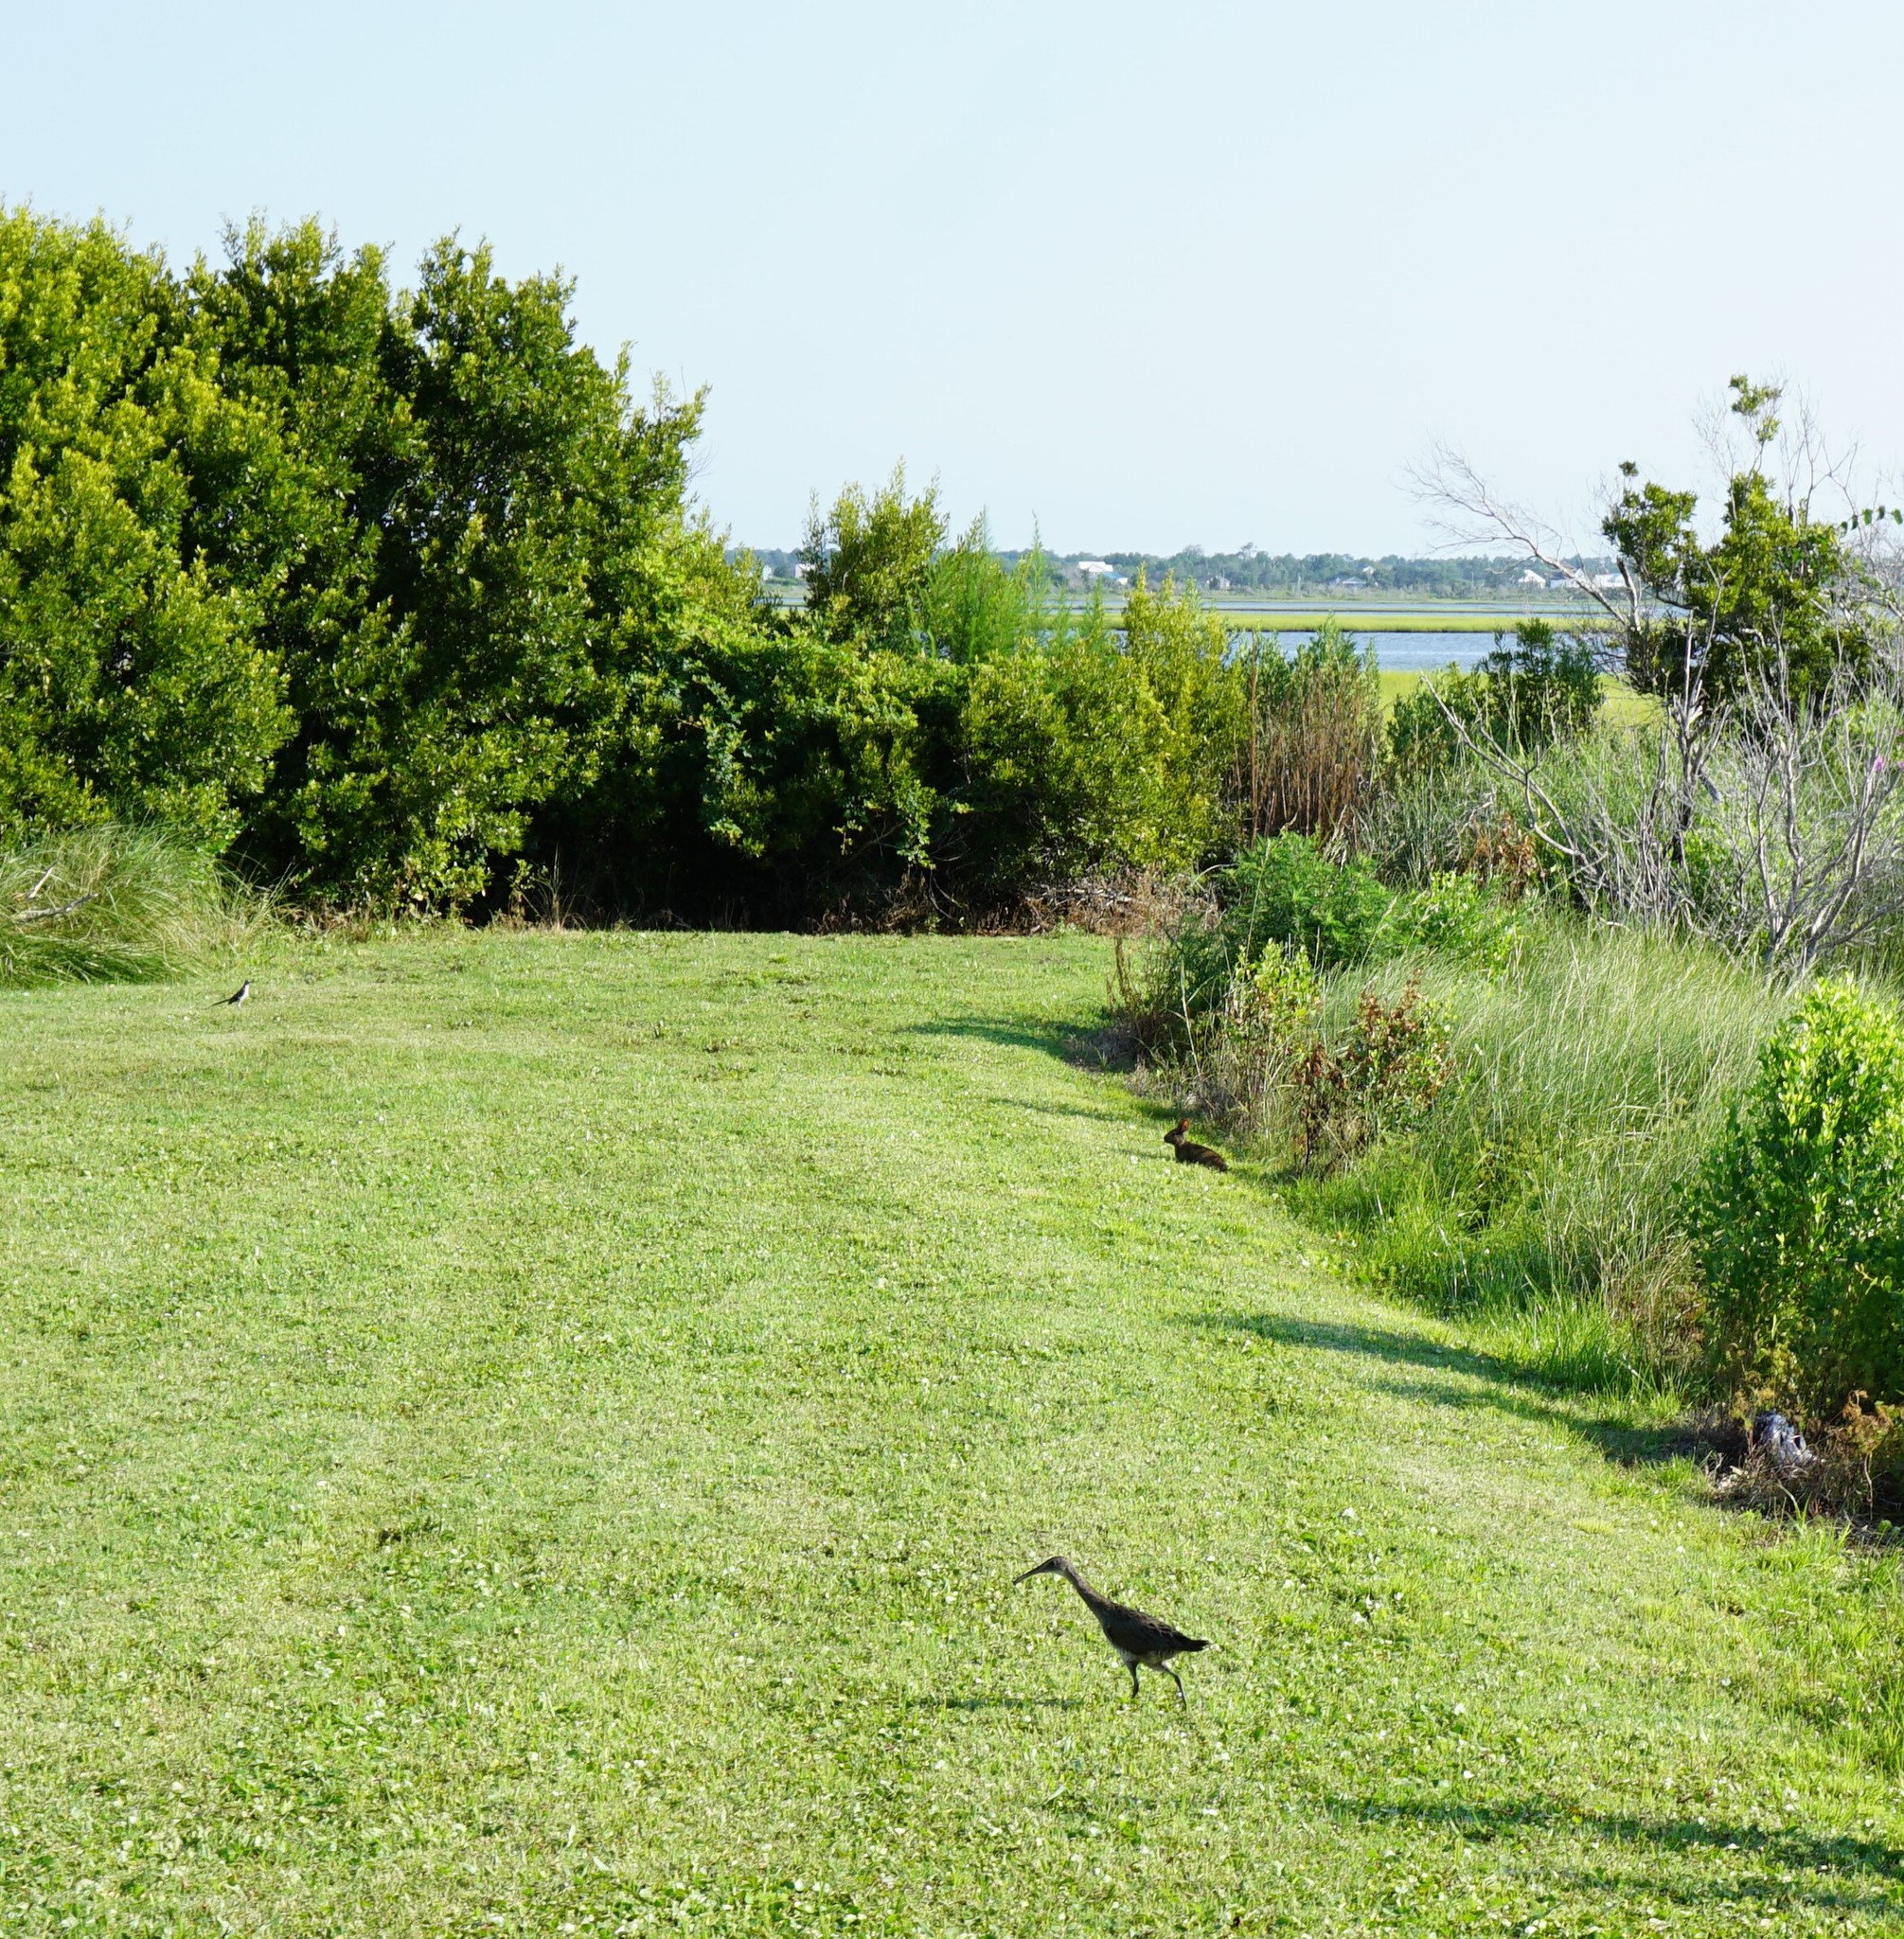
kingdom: Animalia
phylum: Chordata
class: Aves
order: Gruiformes
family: Rallidae
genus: Rallus
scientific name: Rallus crepitans
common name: Clapper rail
